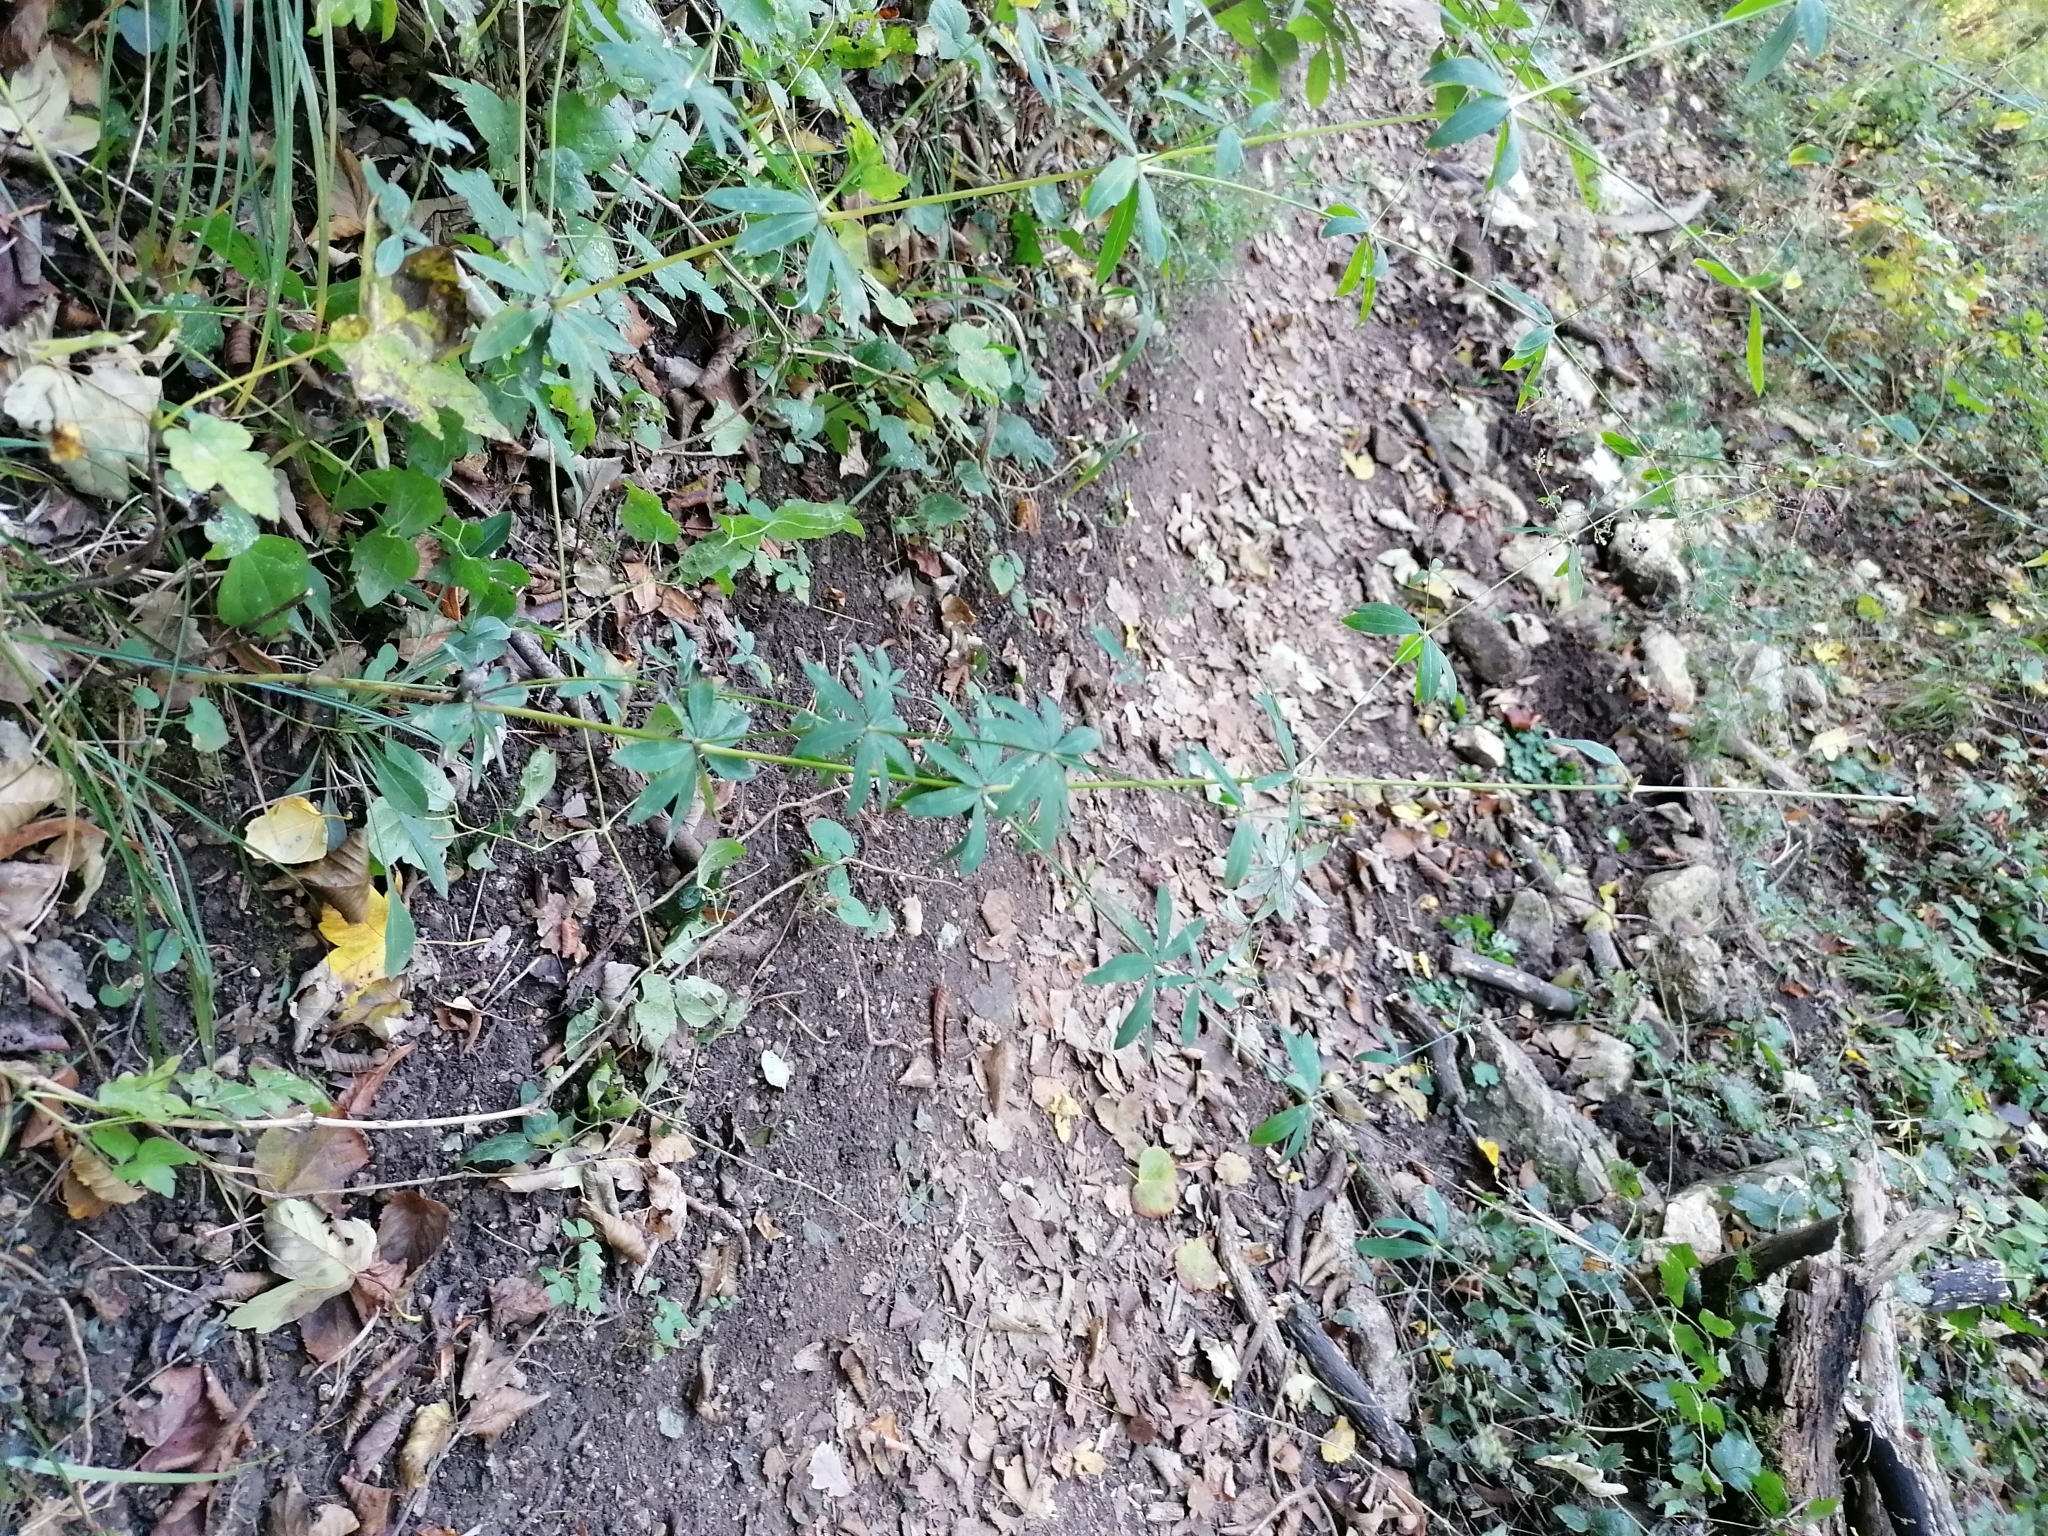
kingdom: Plantae
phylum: Tracheophyta
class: Magnoliopsida
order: Gentianales
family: Rubiaceae
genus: Galium
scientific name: Galium sylvaticum
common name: Wood bedstraw
